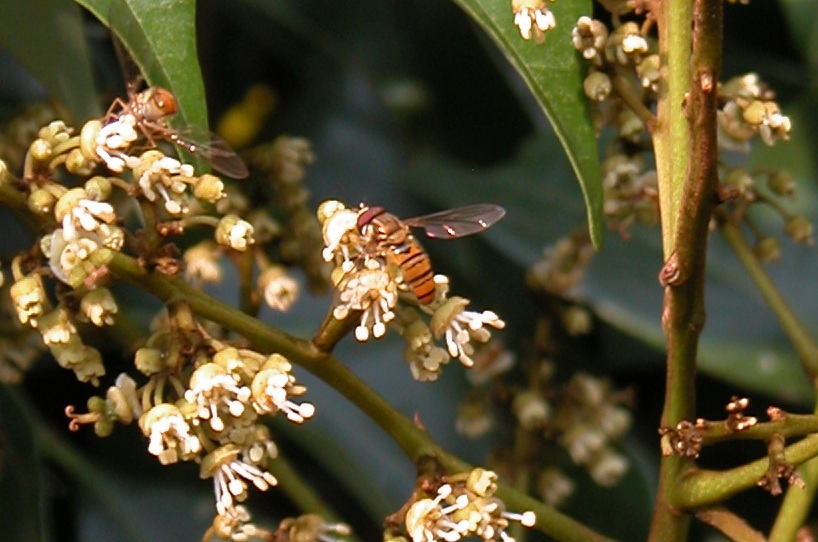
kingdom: Animalia
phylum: Arthropoda
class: Insecta
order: Diptera
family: Syrphidae
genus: Episyrphus
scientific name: Episyrphus viridaureus
